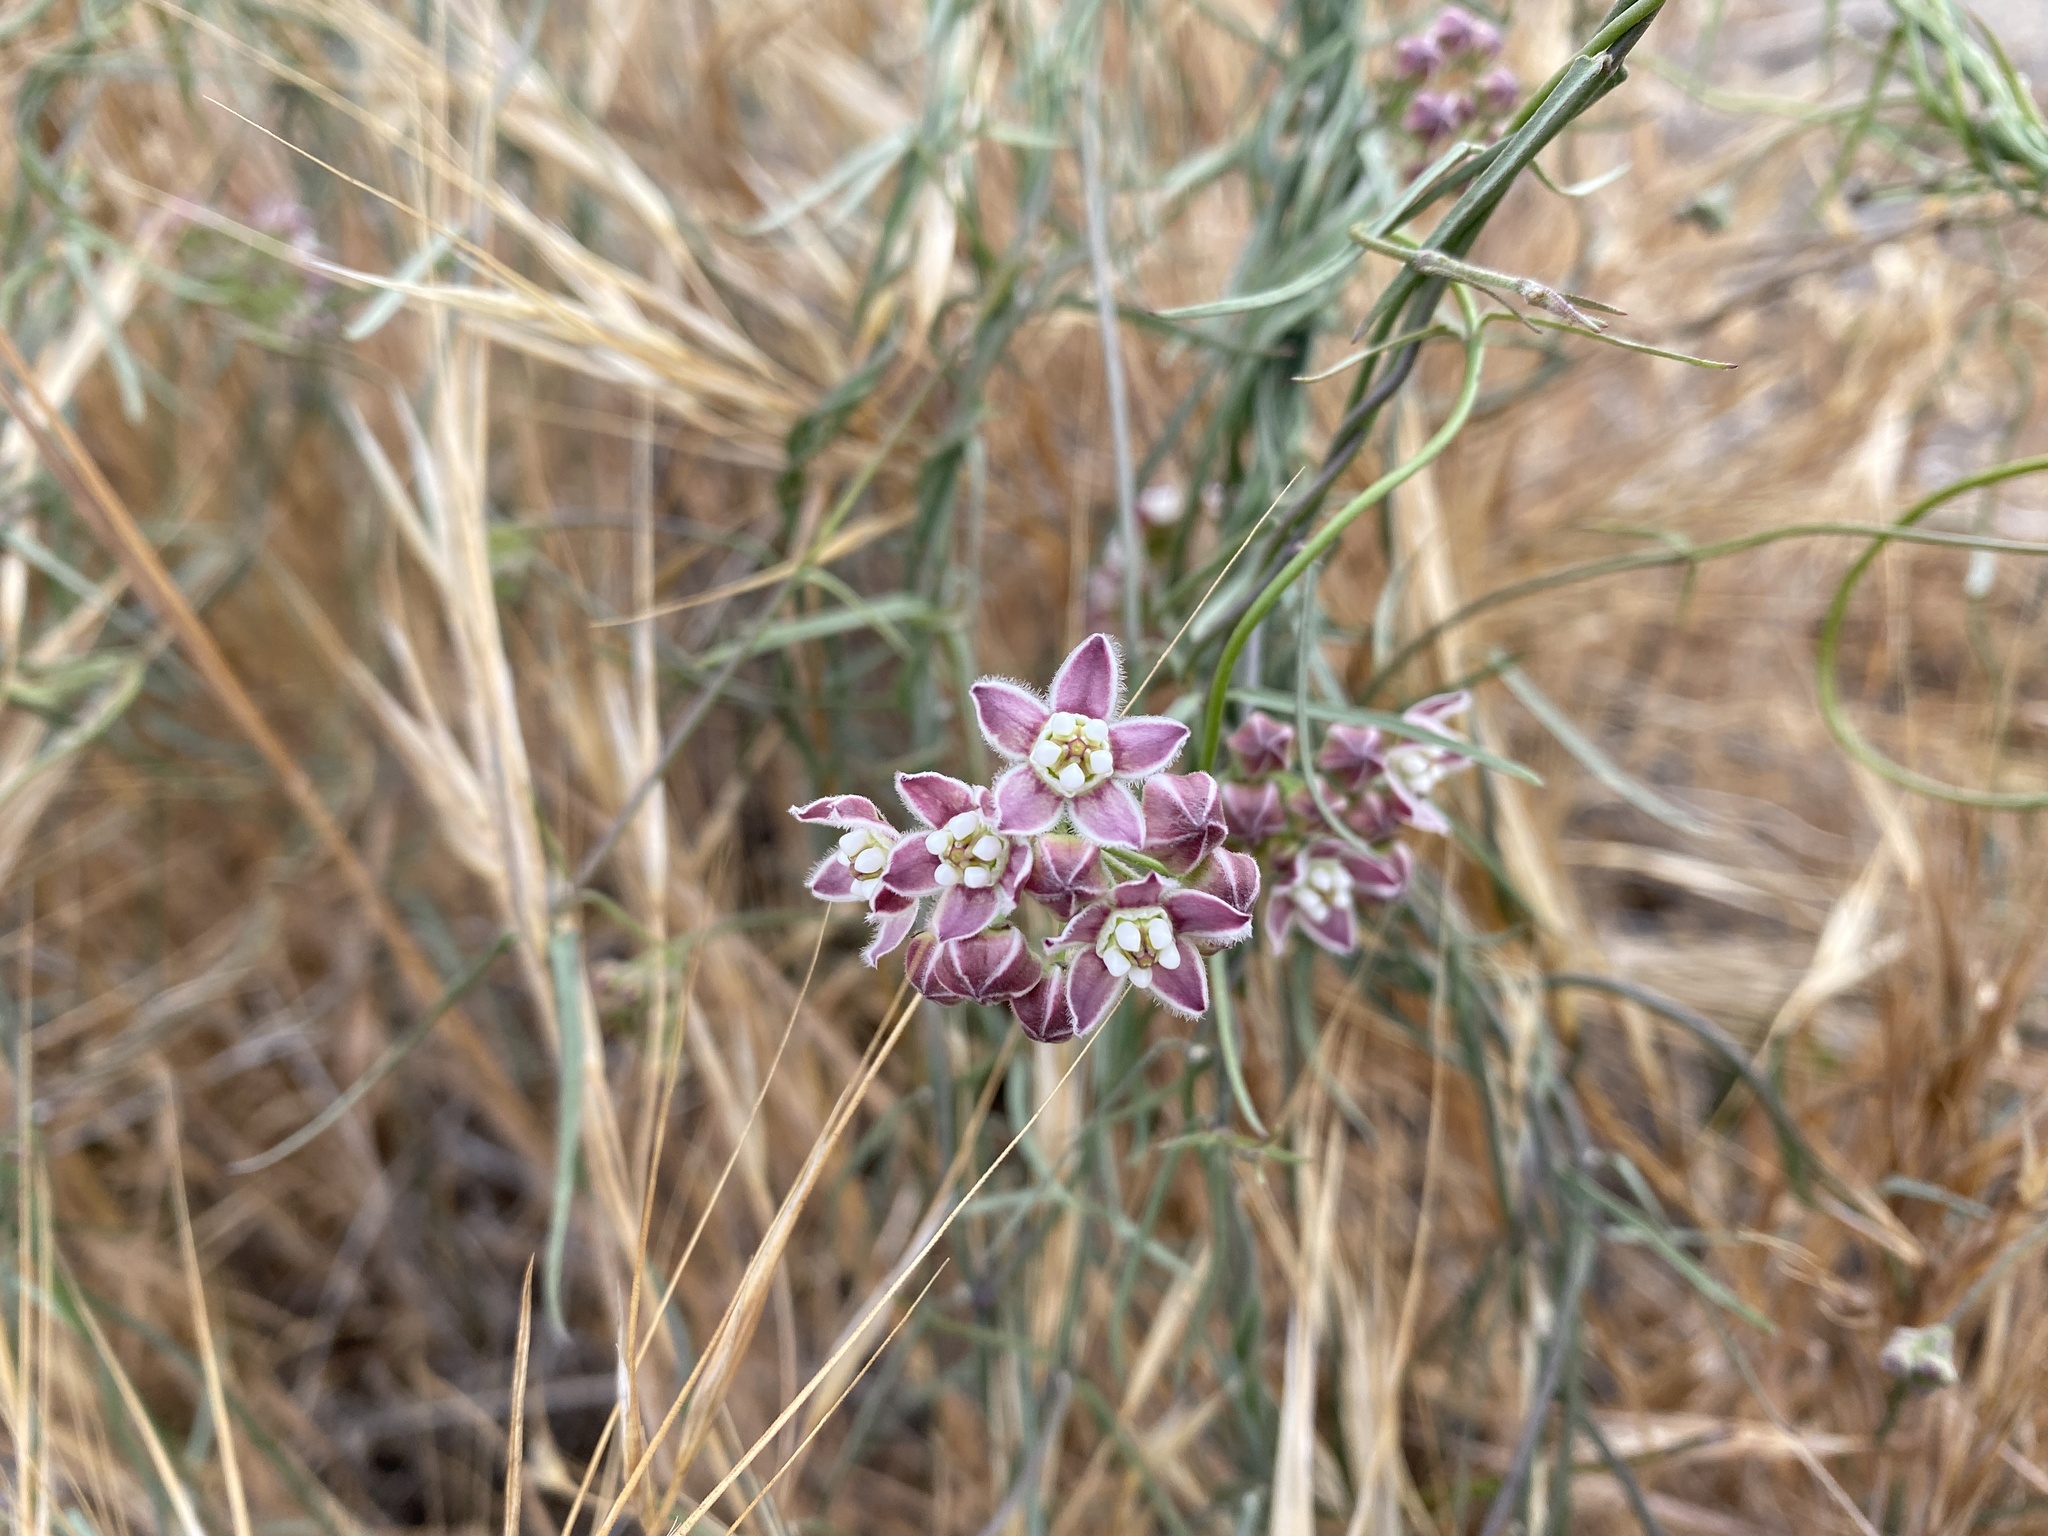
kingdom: Plantae
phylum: Tracheophyta
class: Magnoliopsida
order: Gentianales
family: Apocynaceae
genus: Funastrum
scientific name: Funastrum heterophyllum
